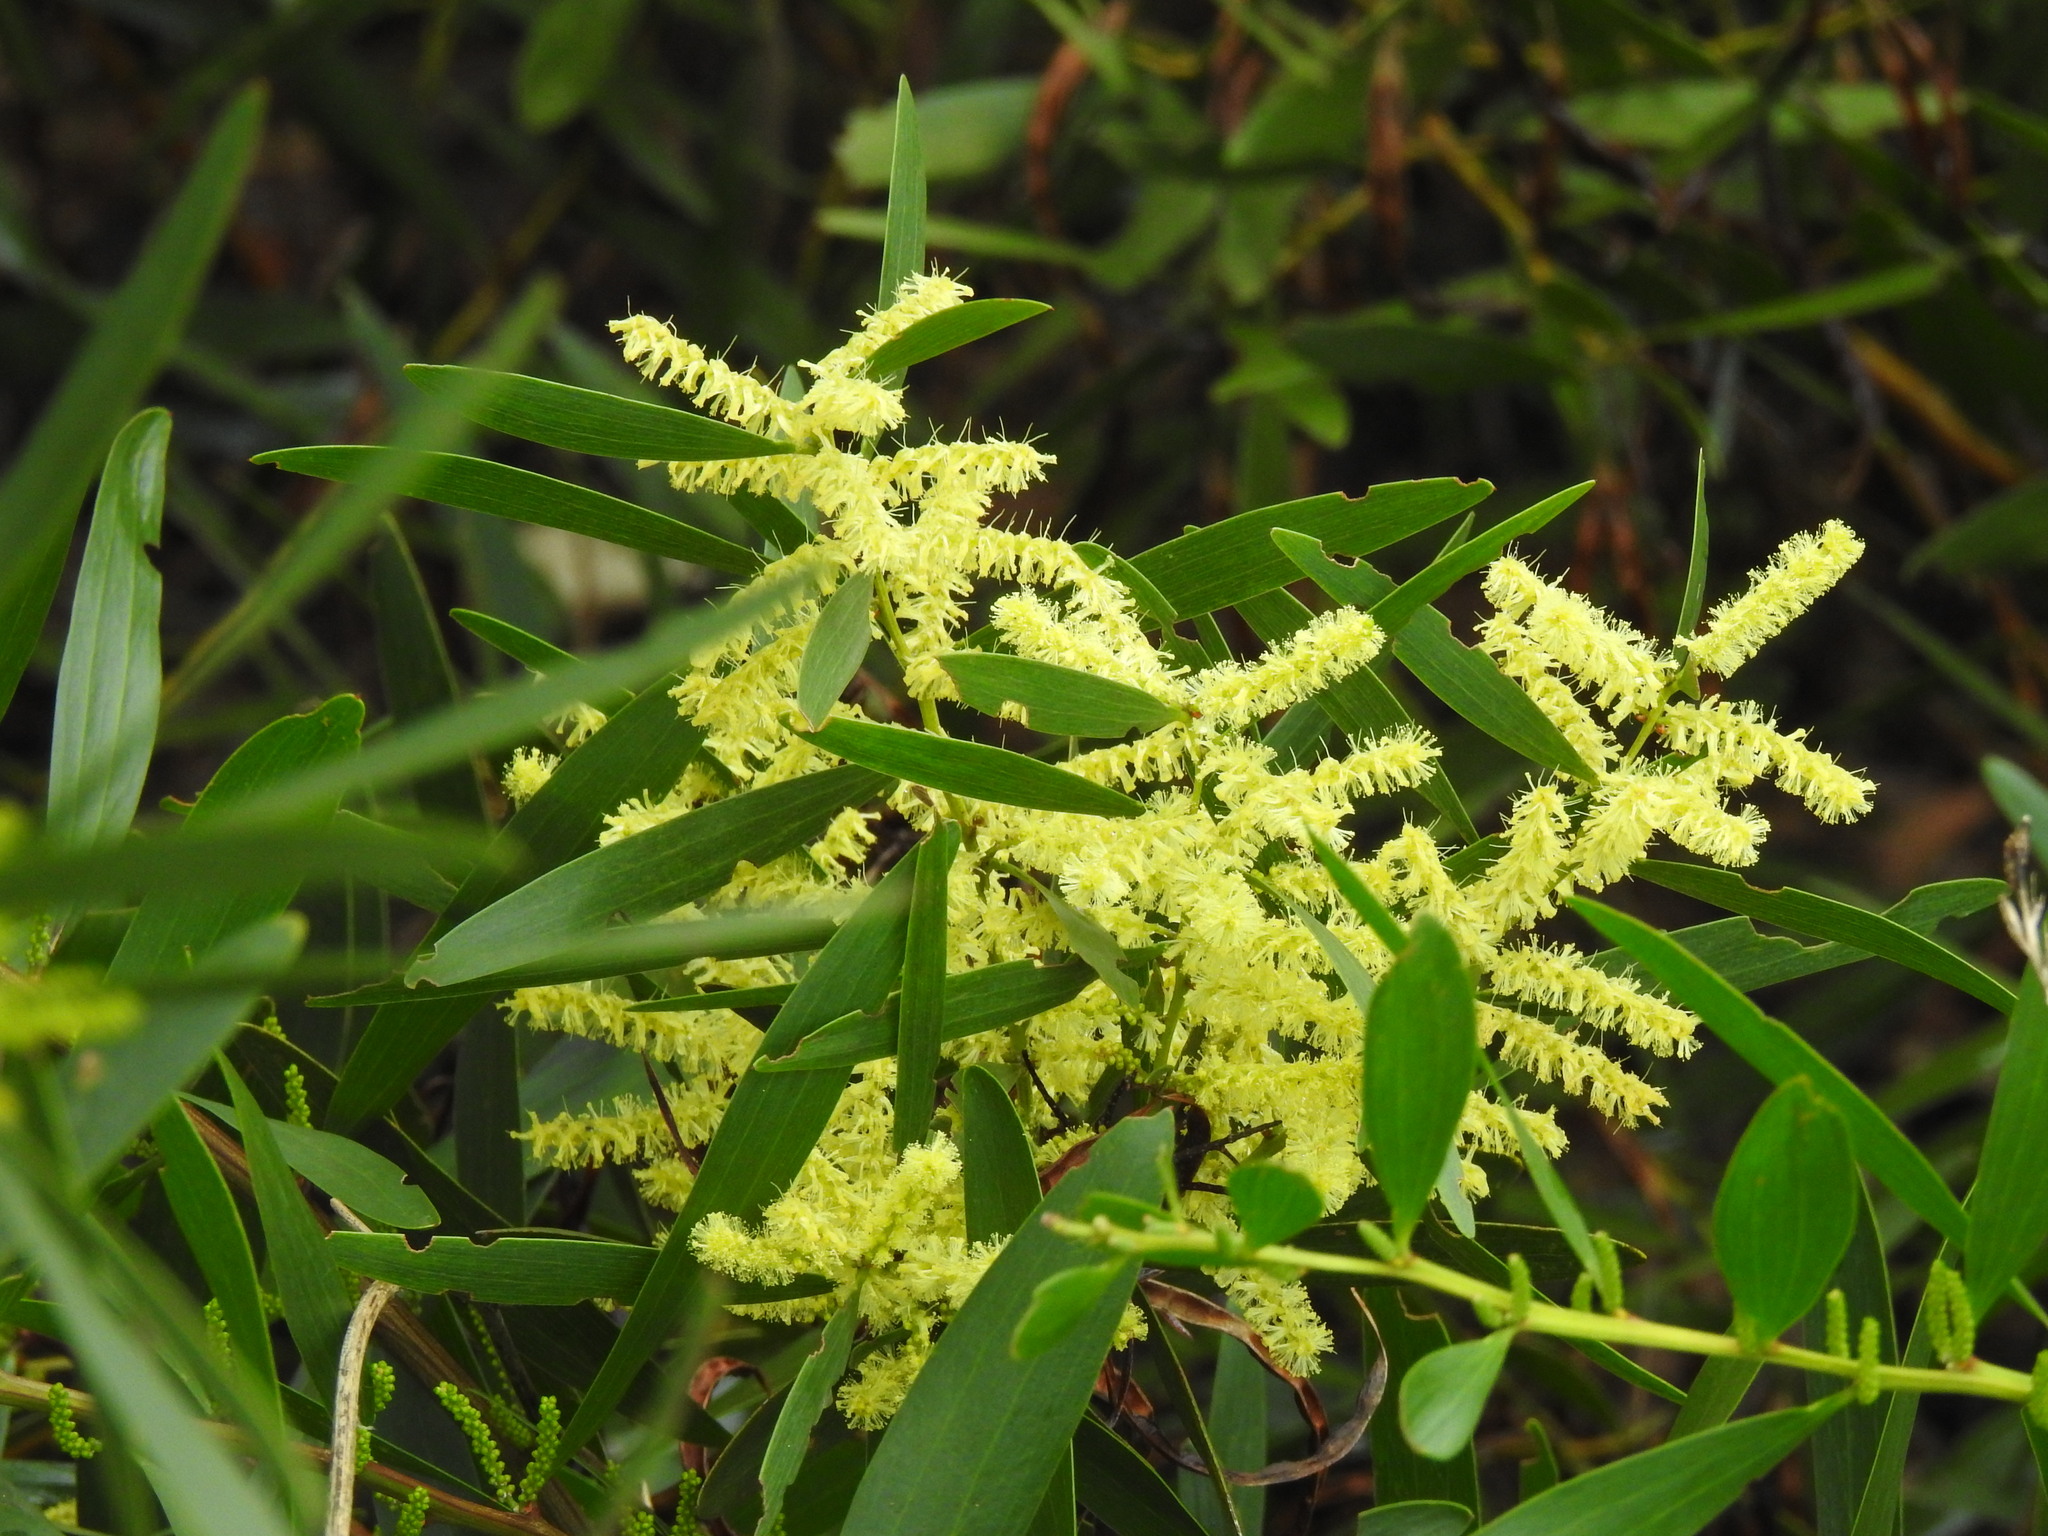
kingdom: Plantae
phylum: Tracheophyta
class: Magnoliopsida
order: Fabales
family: Fabaceae
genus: Acacia
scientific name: Acacia longifolia
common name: Sydney golden wattle
